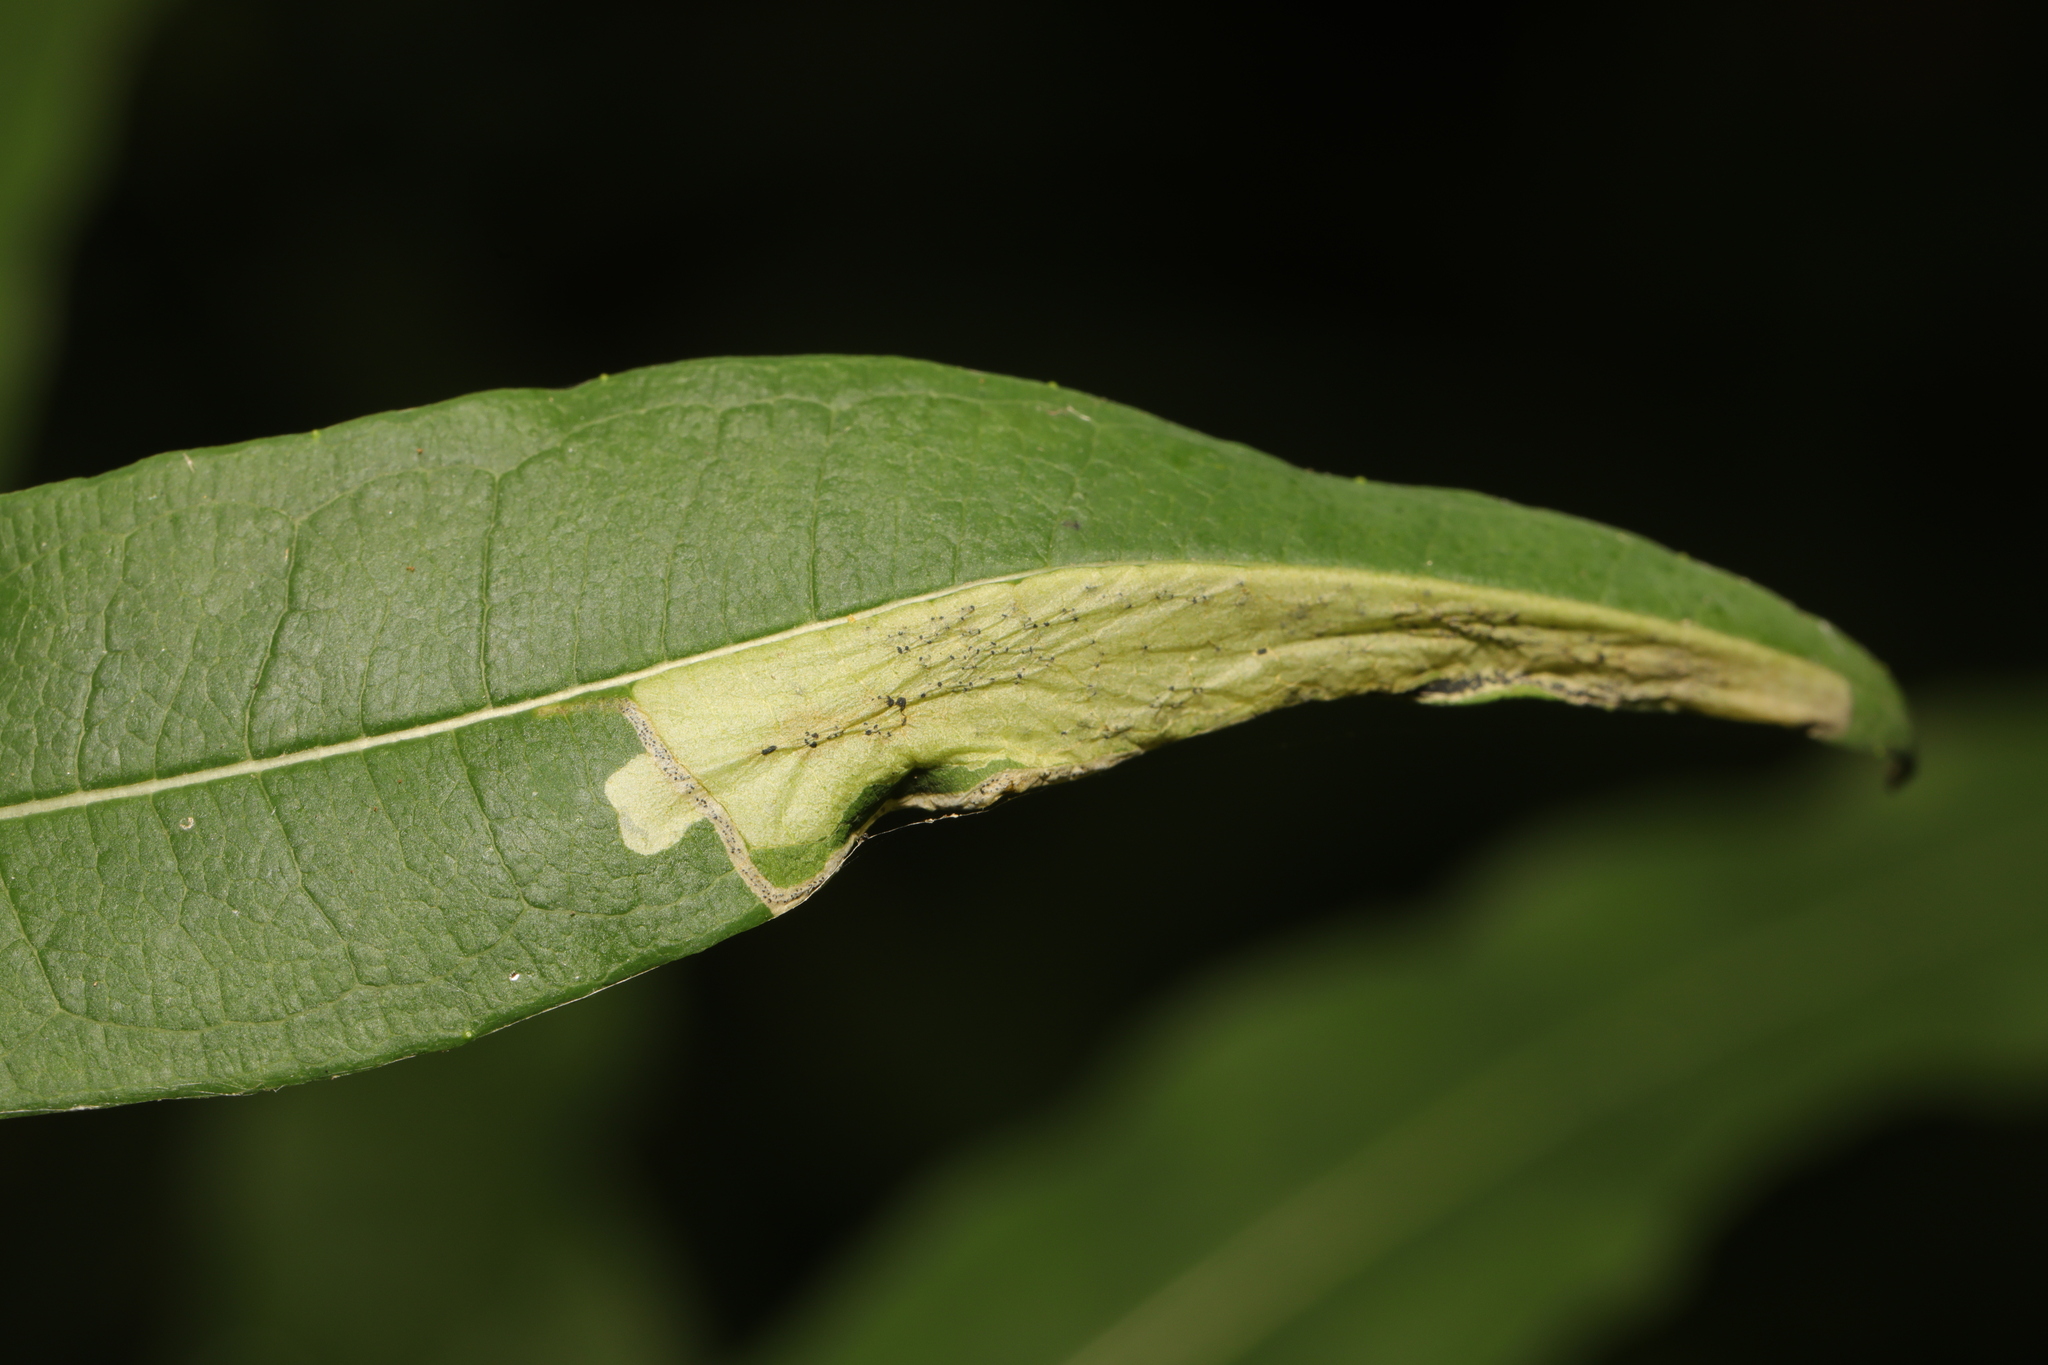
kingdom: Animalia
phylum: Arthropoda
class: Insecta
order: Lepidoptera
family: Momphidae
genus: Mompha
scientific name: Mompha raschkiella
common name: Little cosmet
